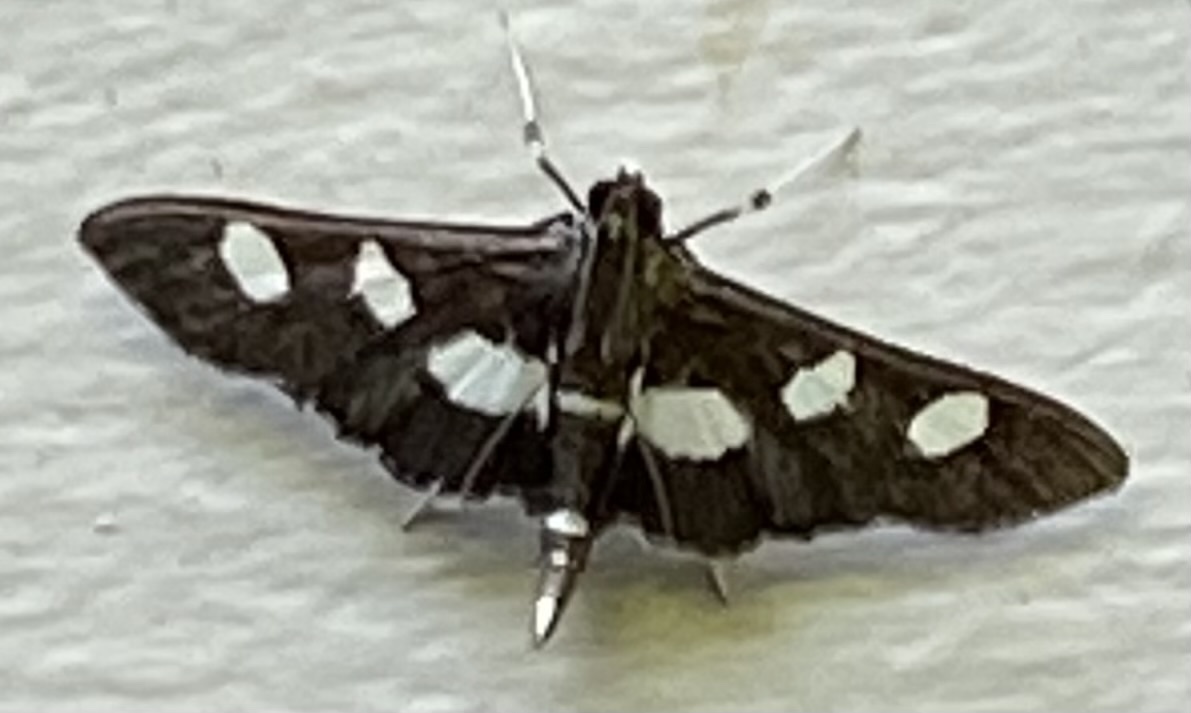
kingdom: Animalia
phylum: Arthropoda
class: Insecta
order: Lepidoptera
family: Crambidae
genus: Desmia
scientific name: Desmia
